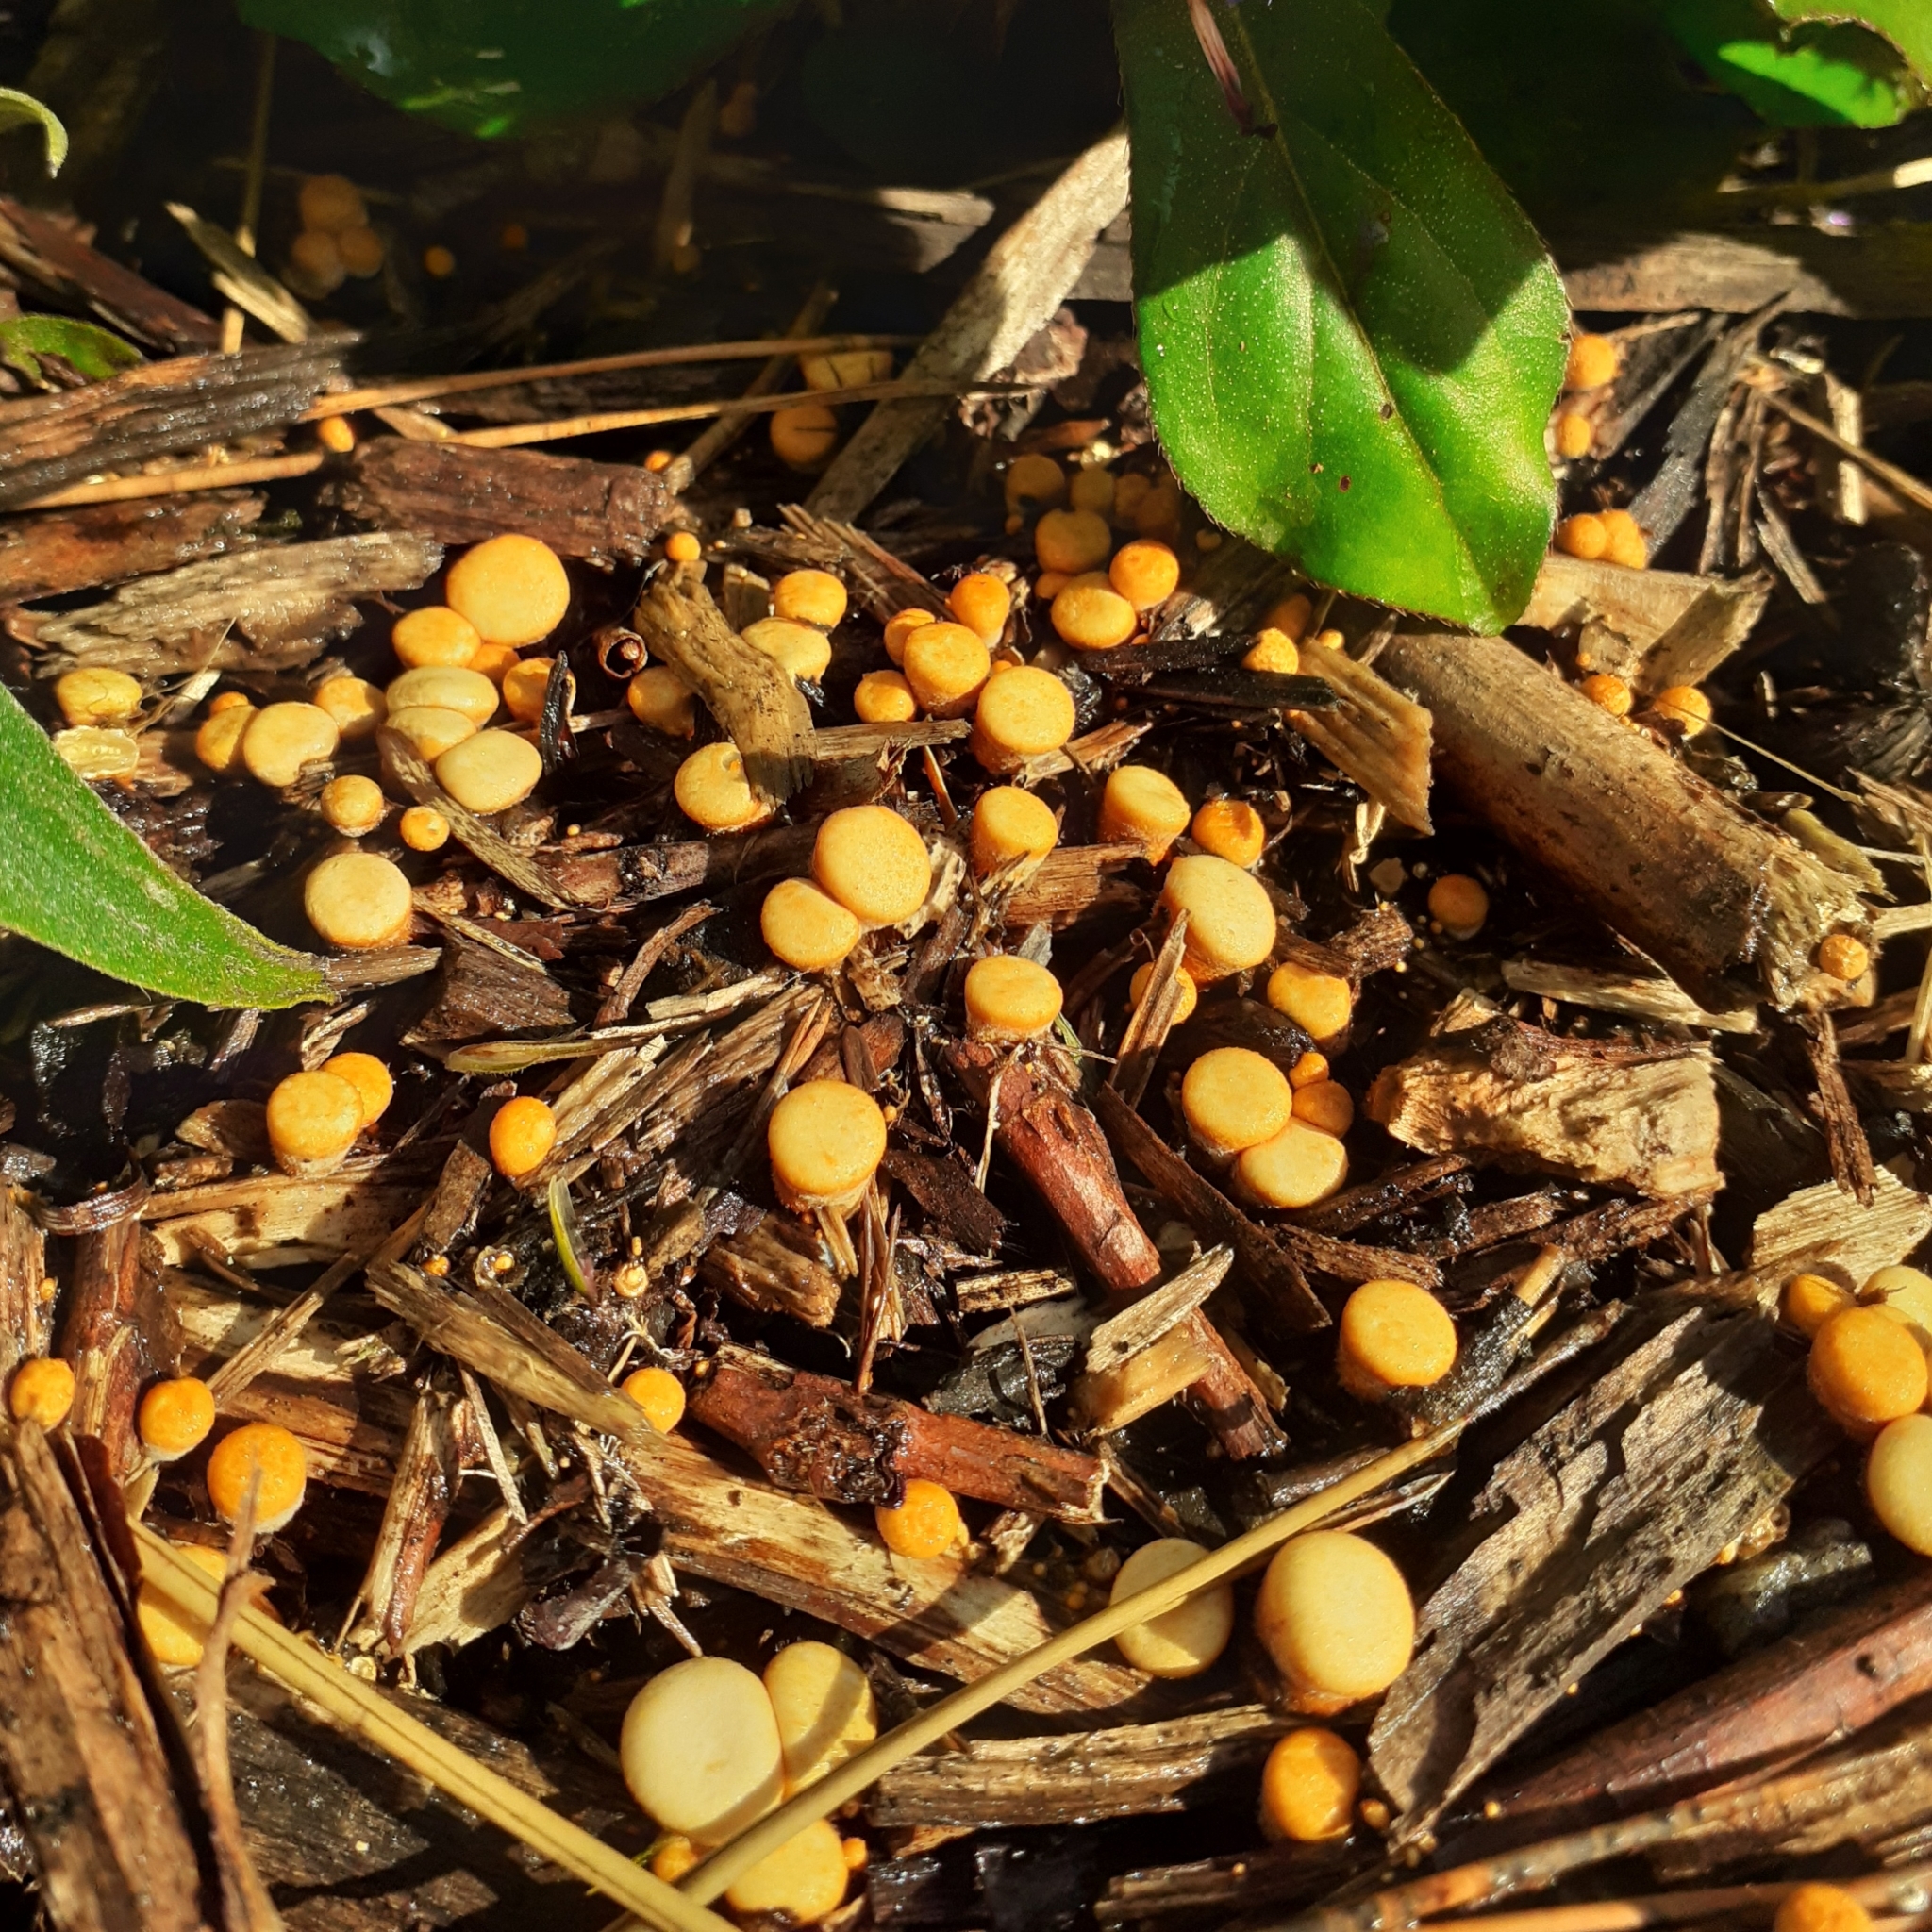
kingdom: Fungi
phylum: Basidiomycota
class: Agaricomycetes
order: Agaricales
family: Nidulariaceae
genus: Crucibulum
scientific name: Crucibulum laeve
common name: Common bird's nest
